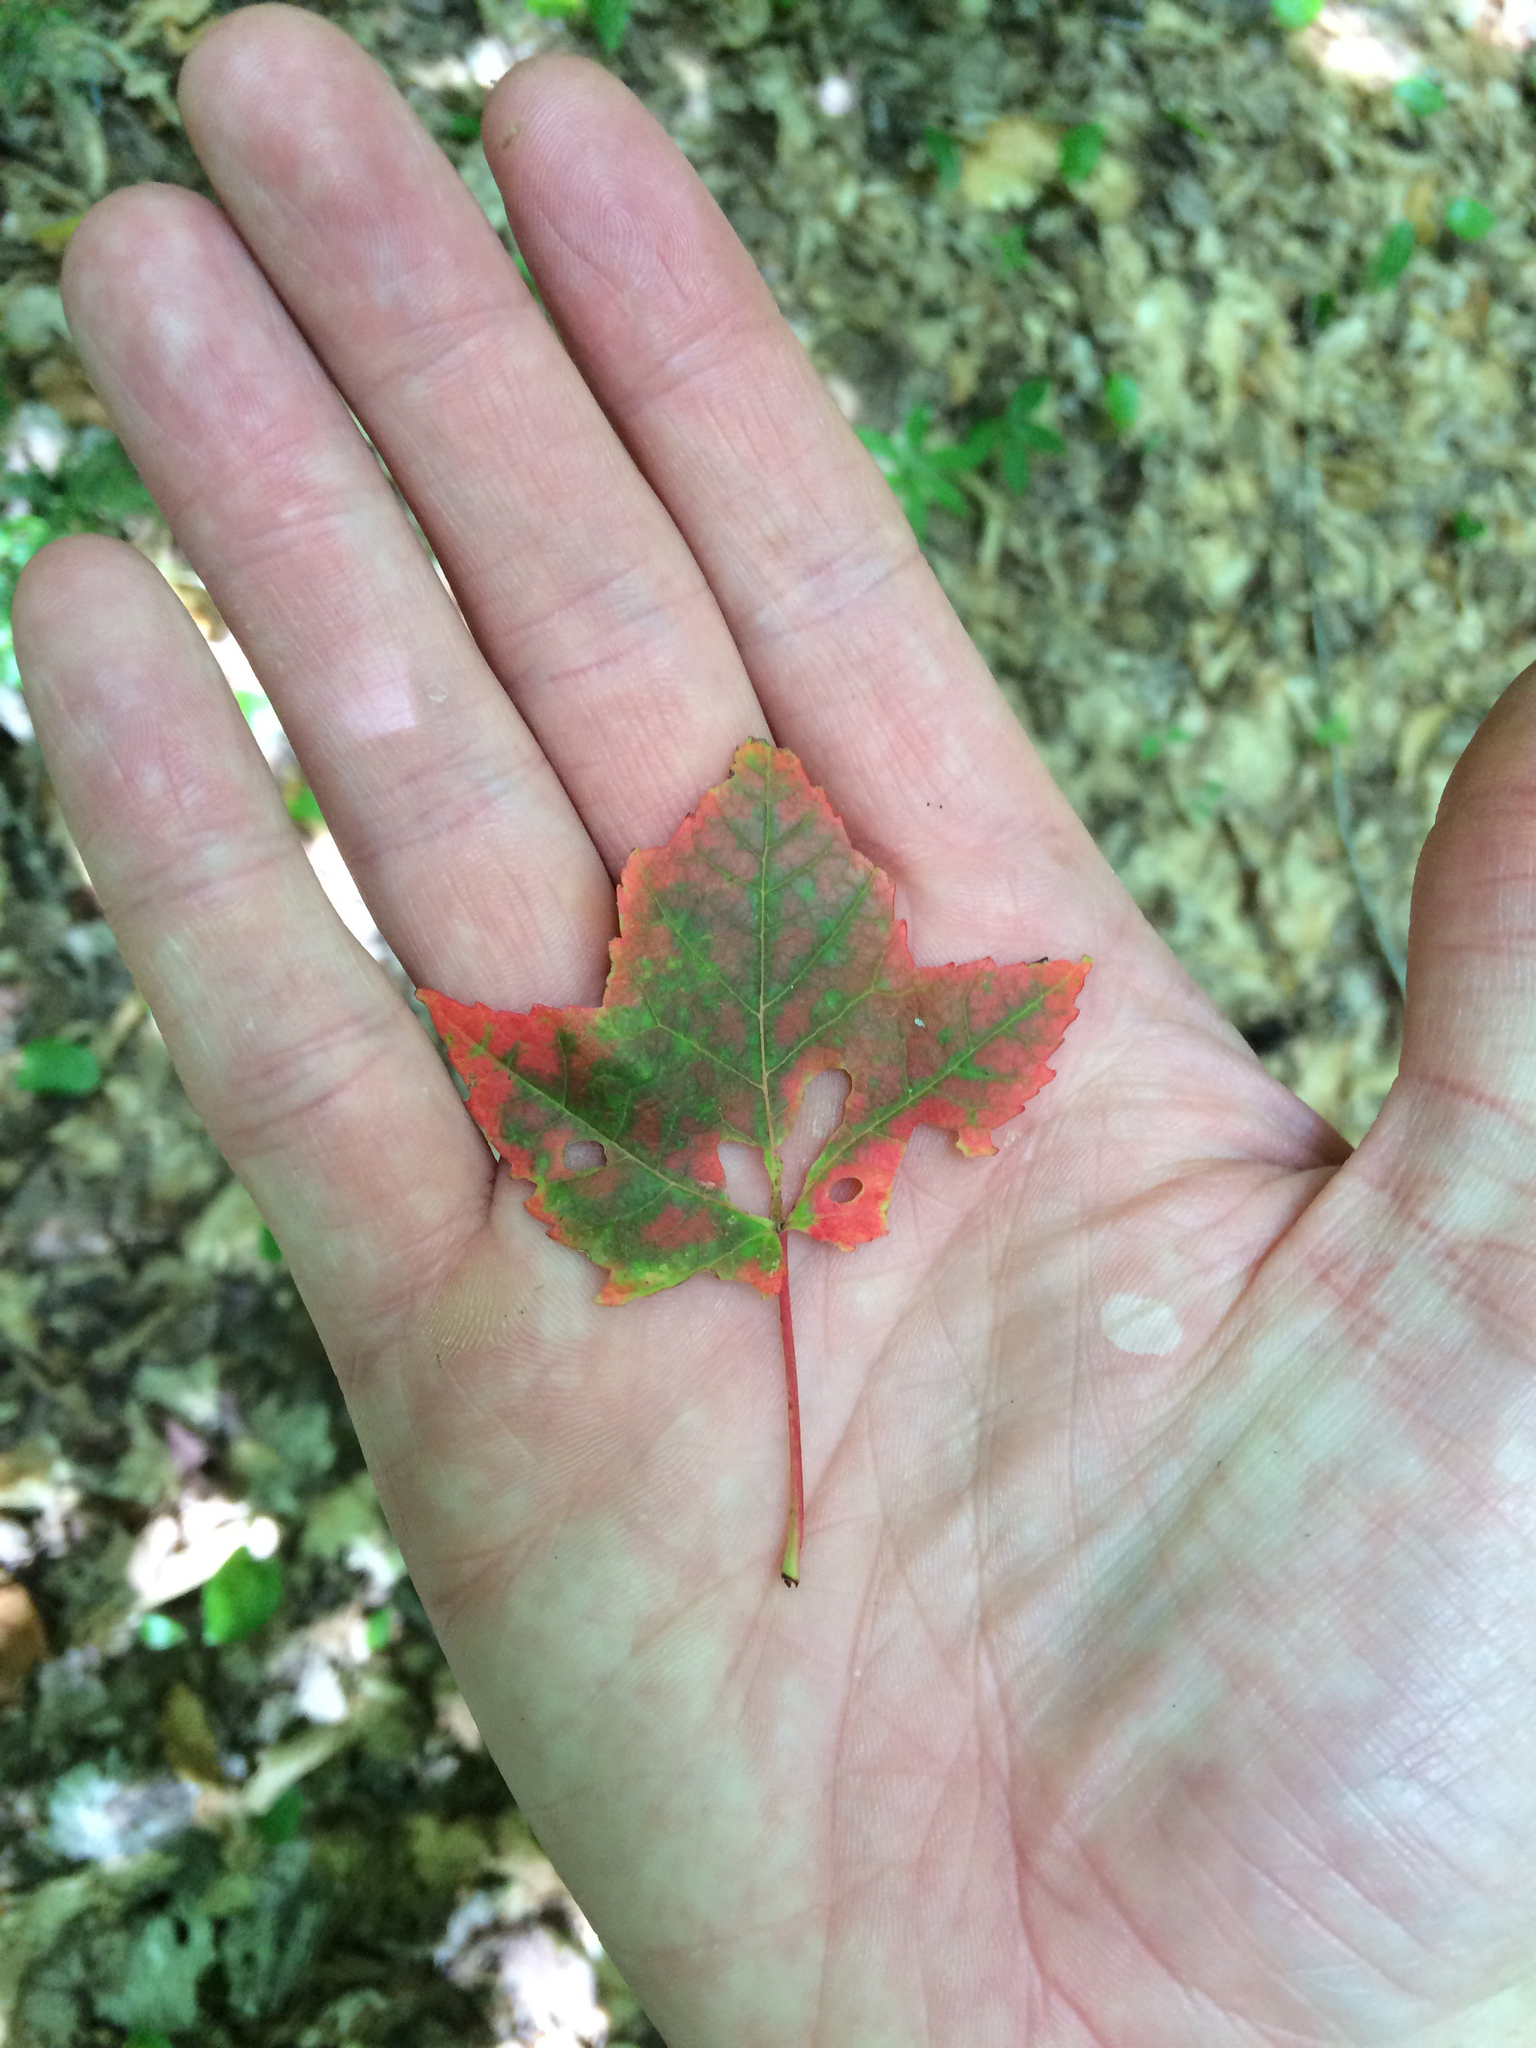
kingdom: Plantae
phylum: Tracheophyta
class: Magnoliopsida
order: Sapindales
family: Sapindaceae
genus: Acer
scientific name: Acer rubrum
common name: Red maple
